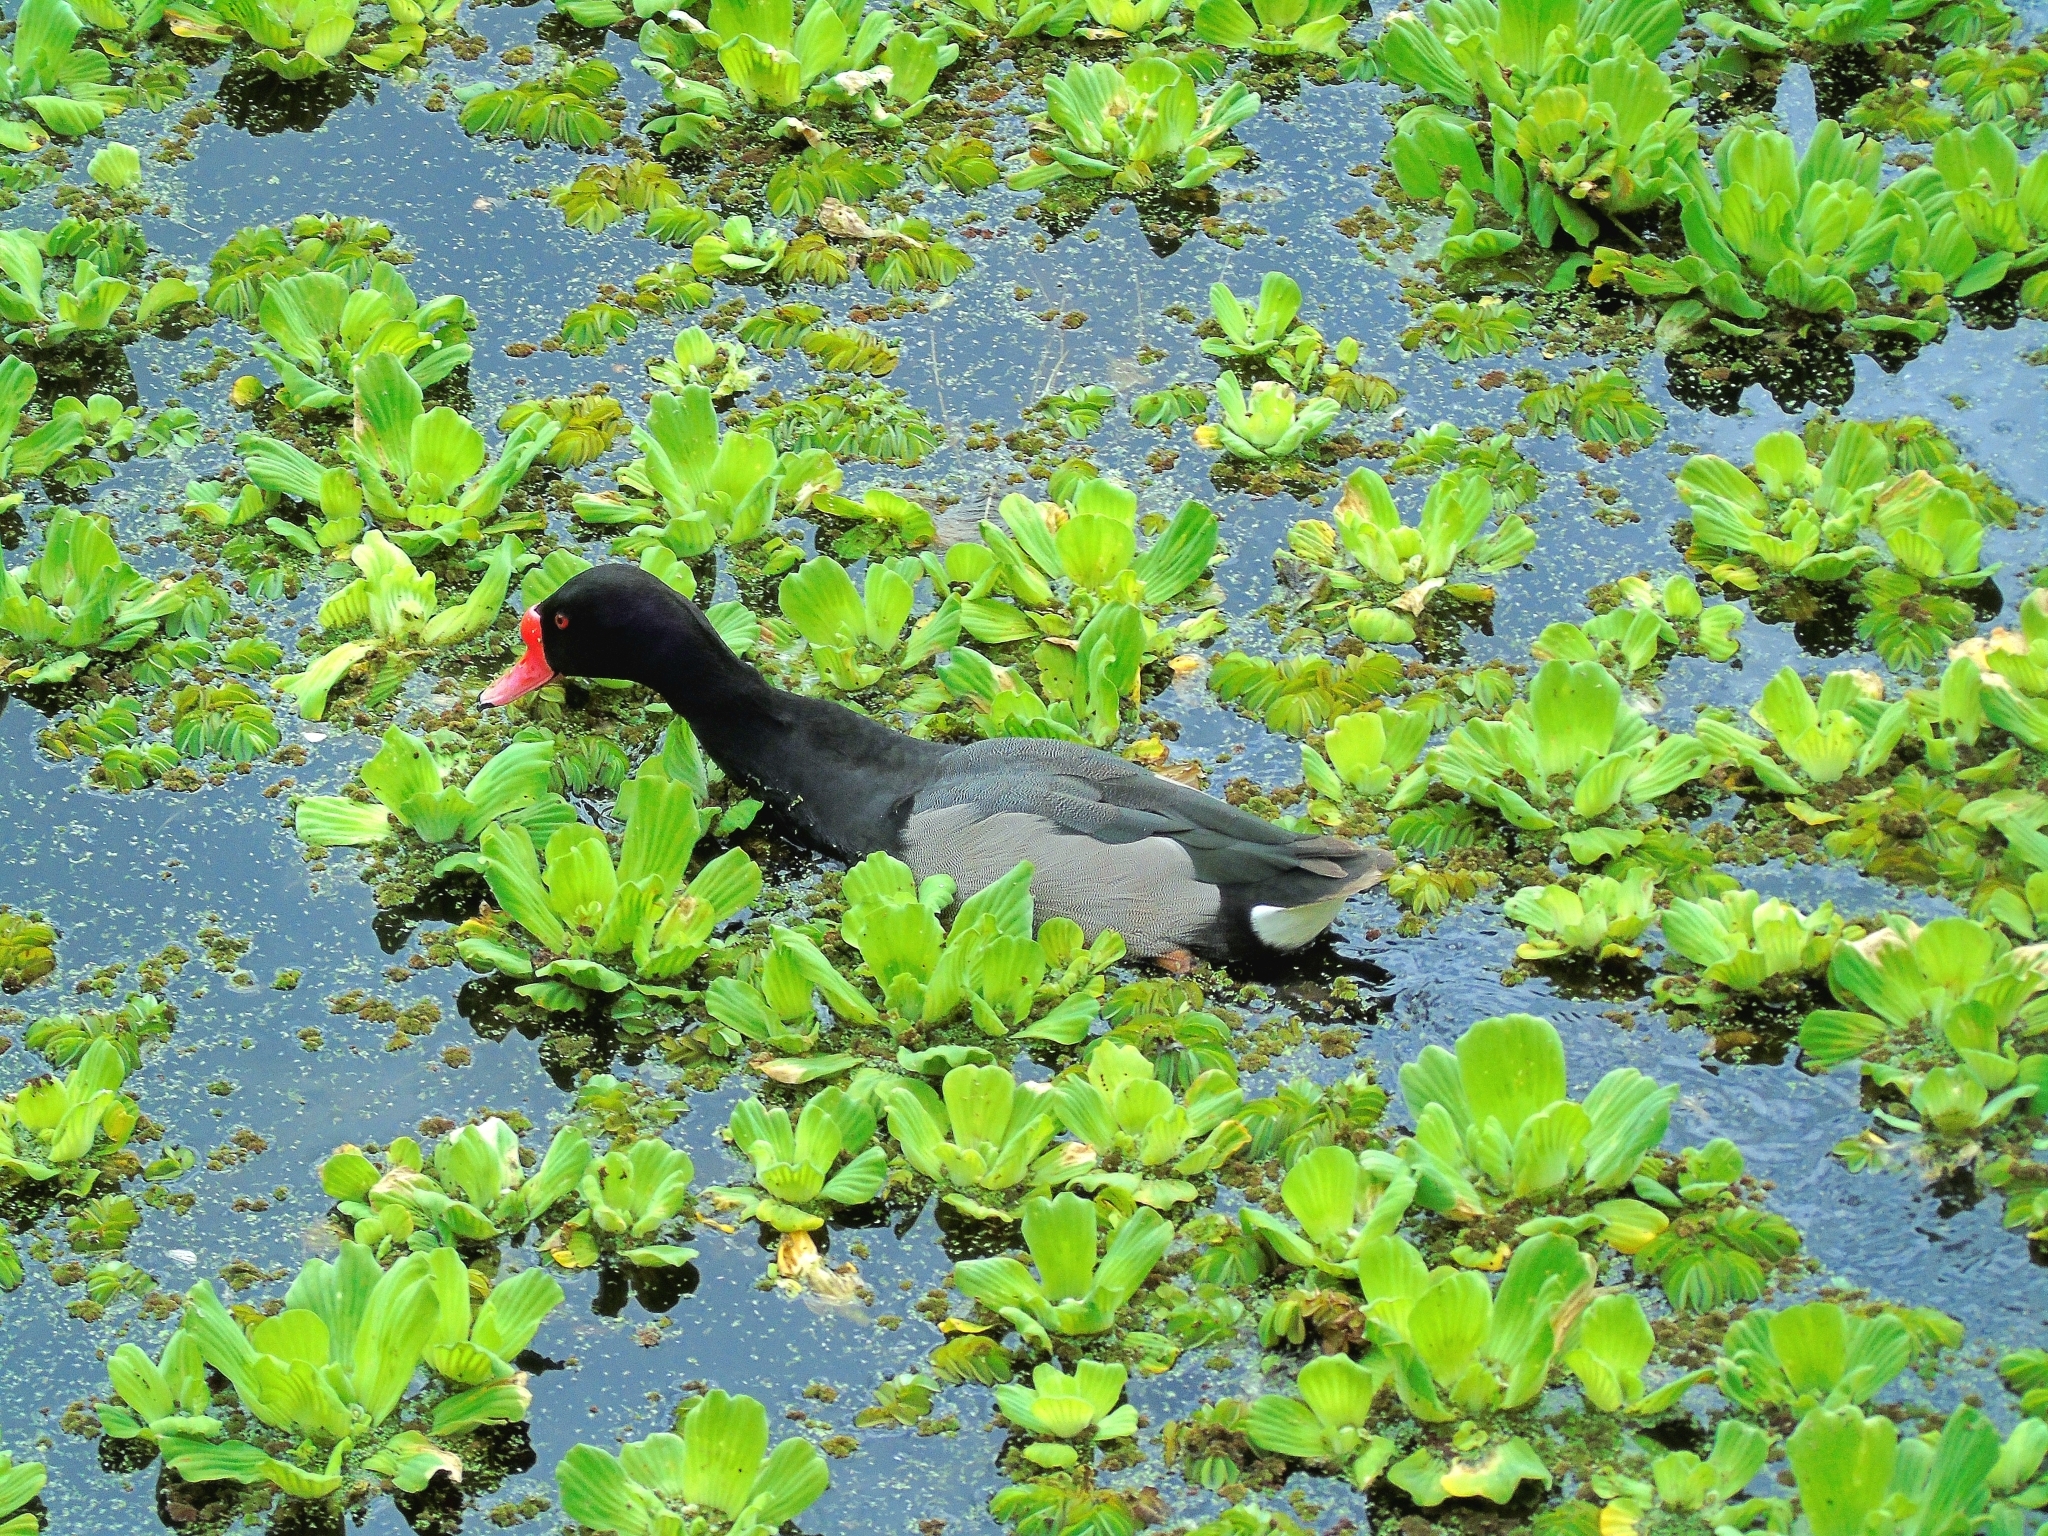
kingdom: Animalia
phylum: Chordata
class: Aves
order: Anseriformes
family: Anatidae
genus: Netta
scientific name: Netta peposaca
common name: Rosy-billed pochard
